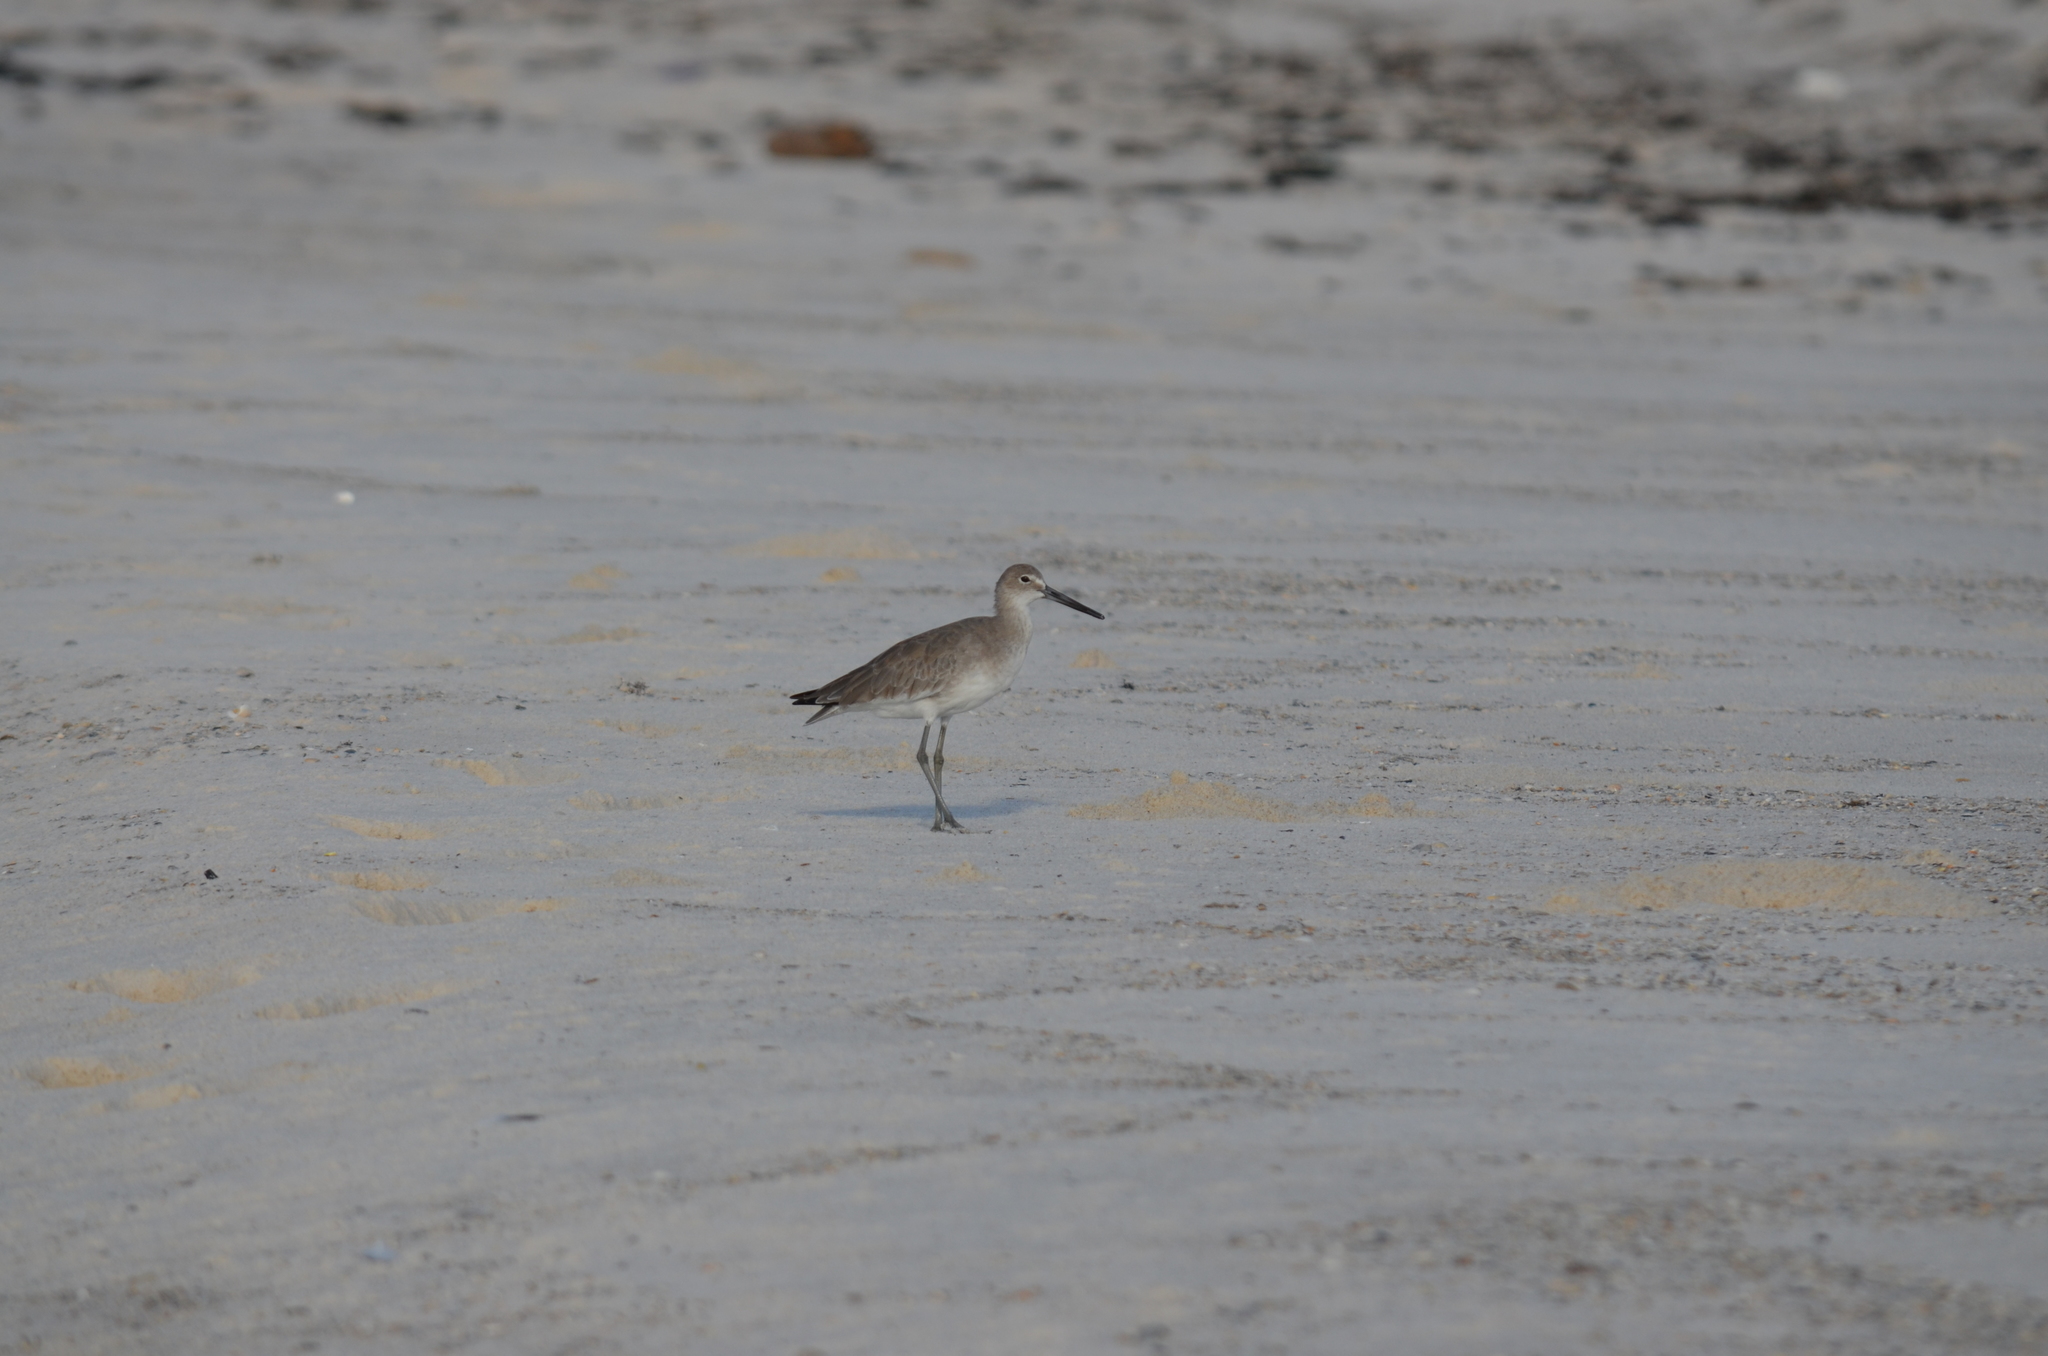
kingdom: Animalia
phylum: Chordata
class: Aves
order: Charadriiformes
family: Scolopacidae
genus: Tringa
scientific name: Tringa semipalmata
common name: Willet
